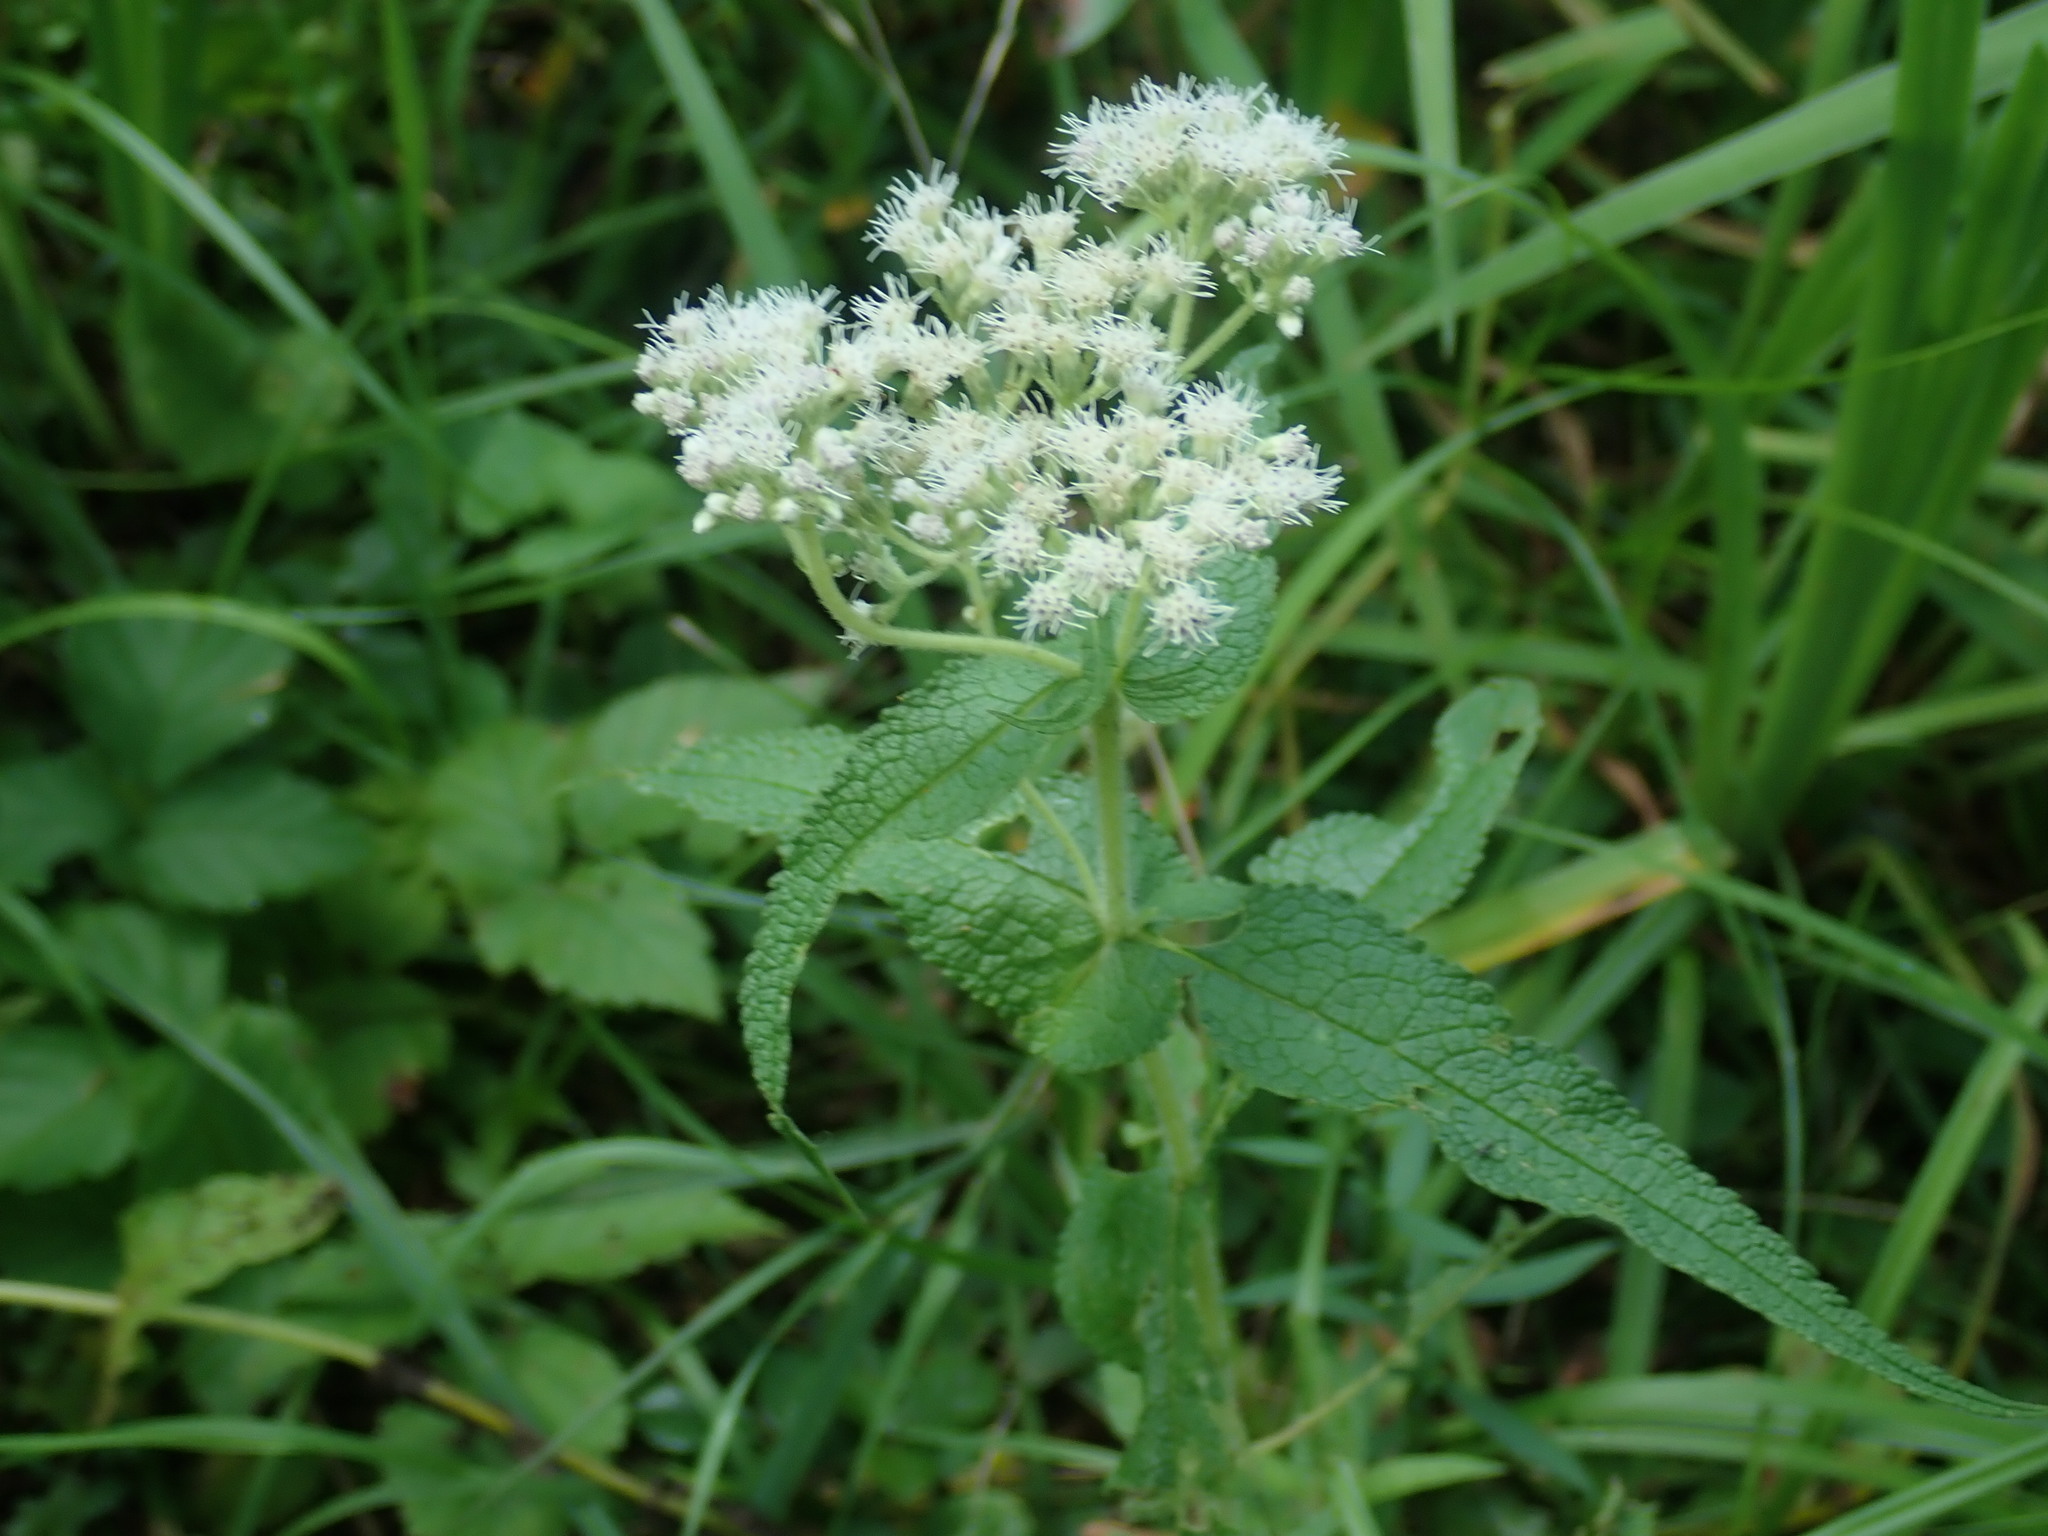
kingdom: Plantae
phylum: Tracheophyta
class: Magnoliopsida
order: Asterales
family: Asteraceae
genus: Eupatorium
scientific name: Eupatorium perfoliatum
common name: Boneset
